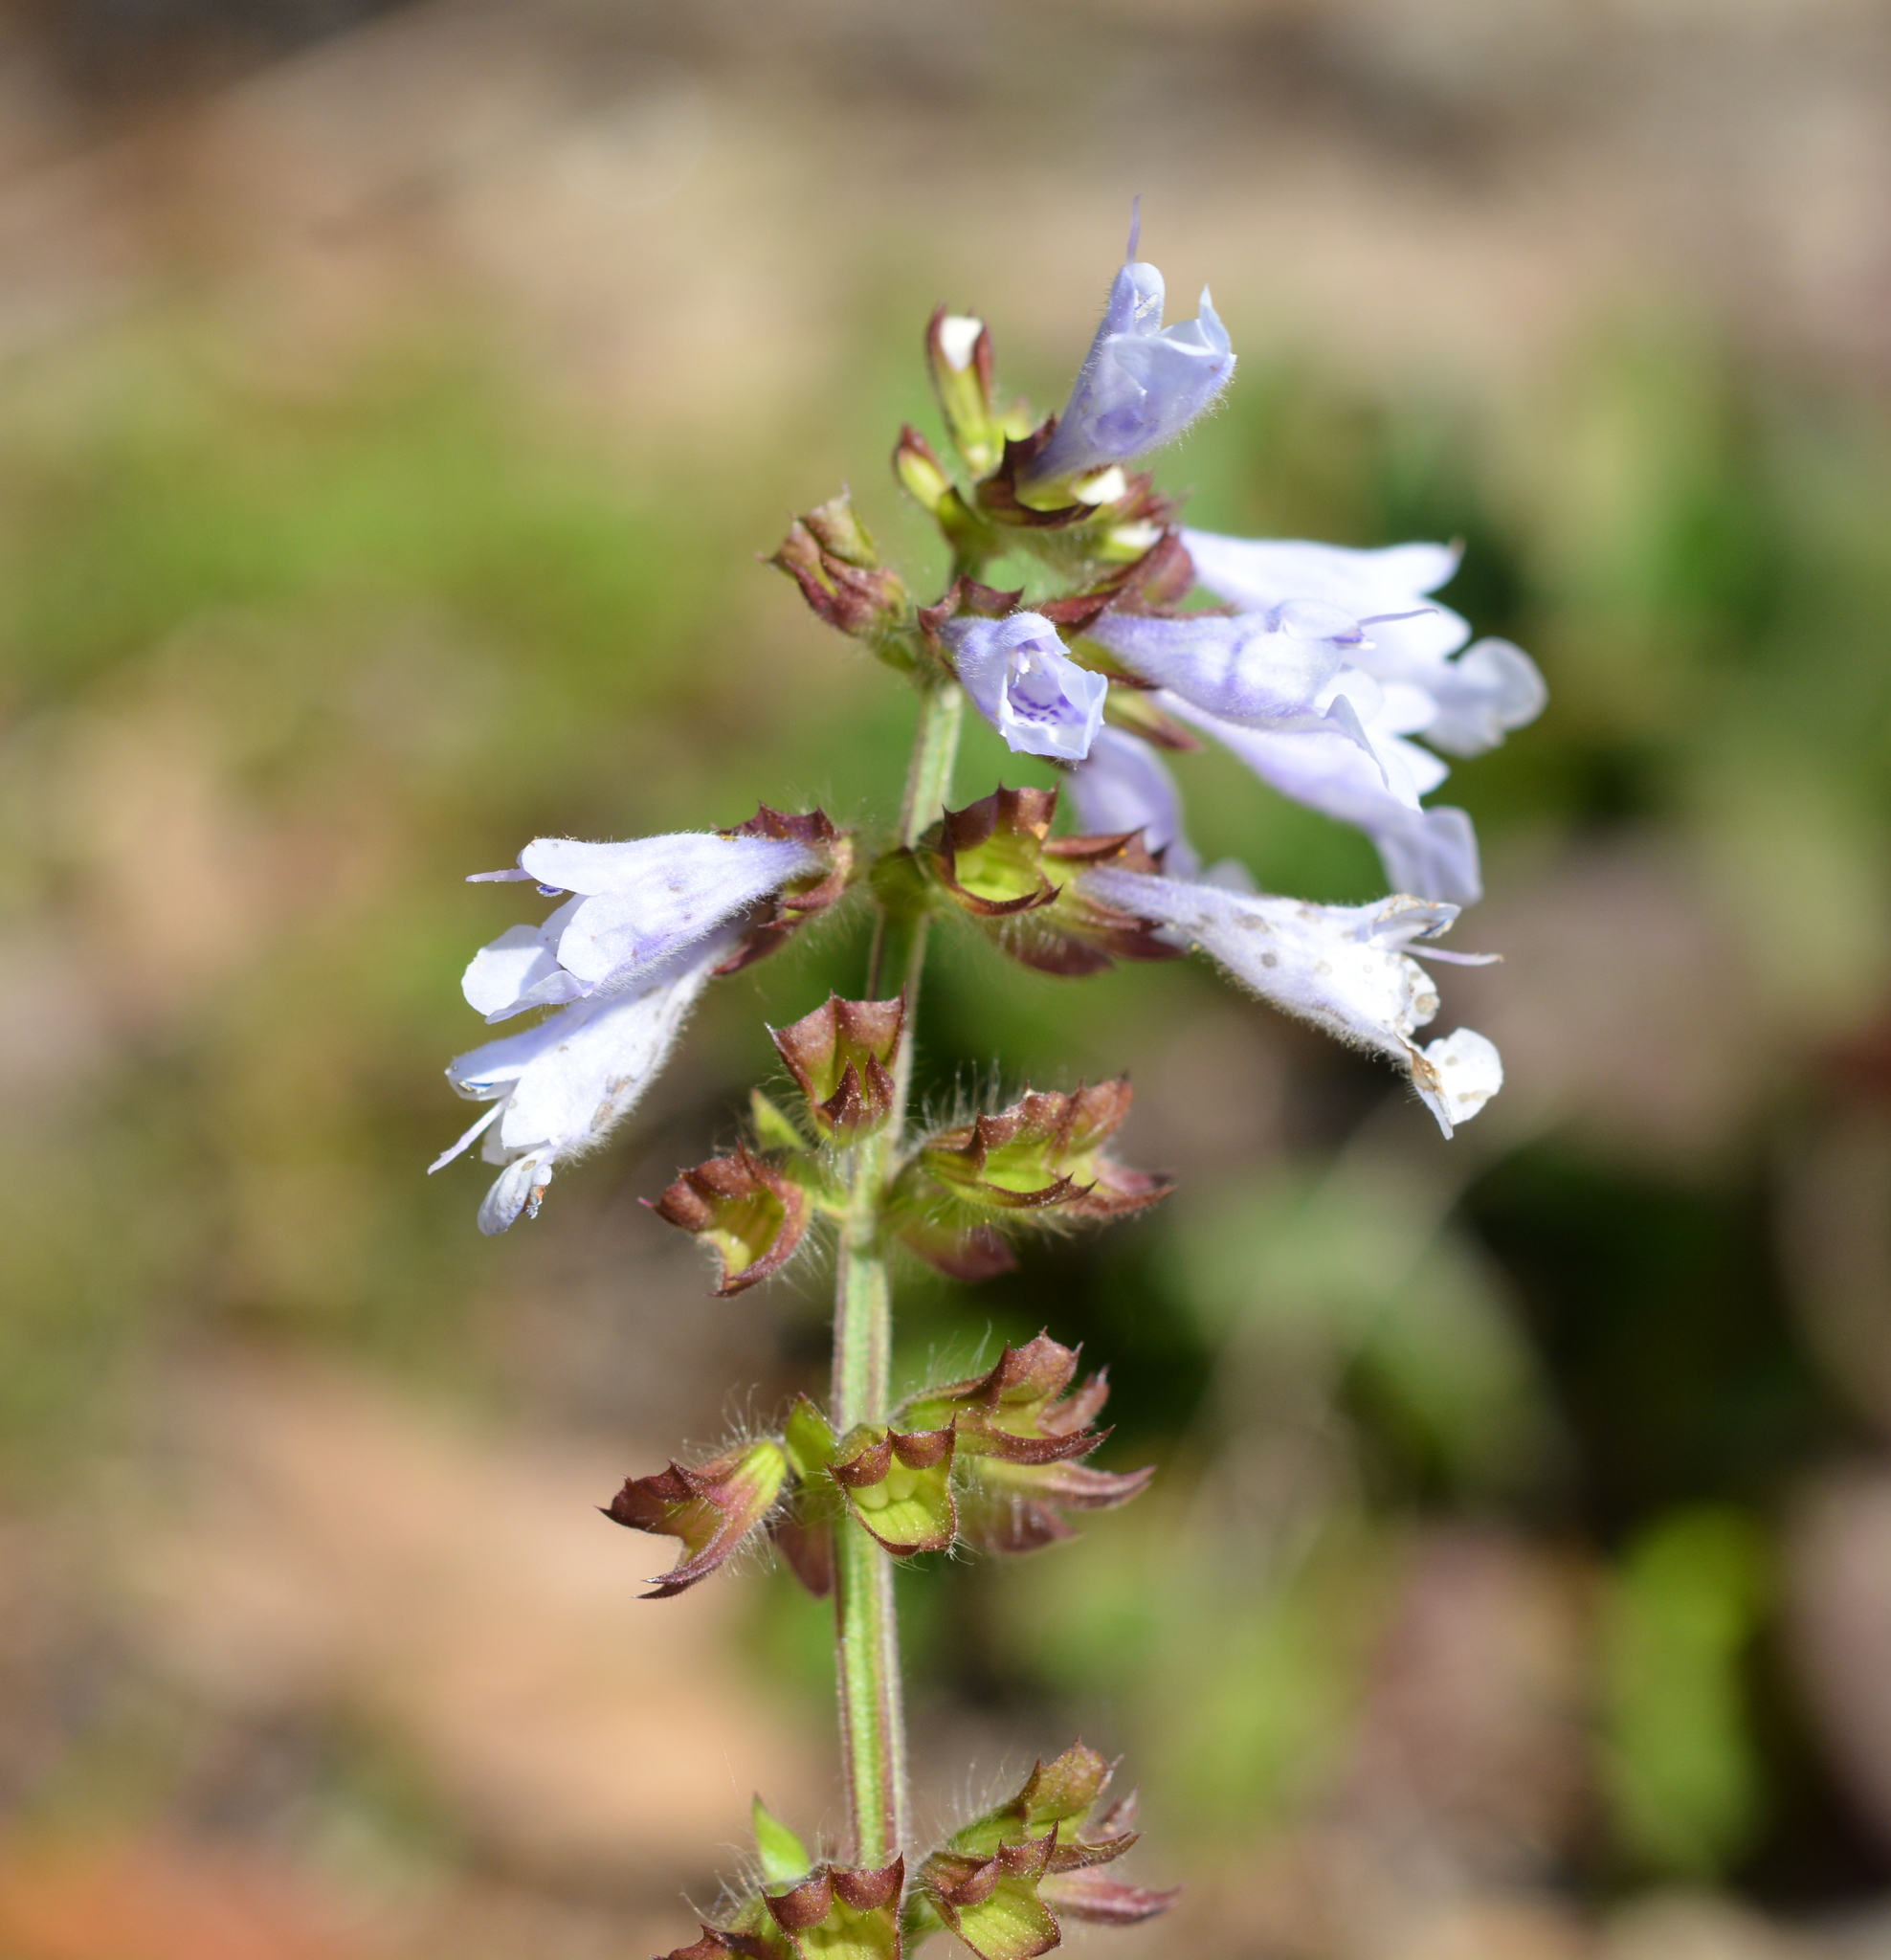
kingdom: Plantae
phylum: Tracheophyta
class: Magnoliopsida
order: Lamiales
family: Lamiaceae
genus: Salvia
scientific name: Salvia lyrata
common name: Cancerweed
